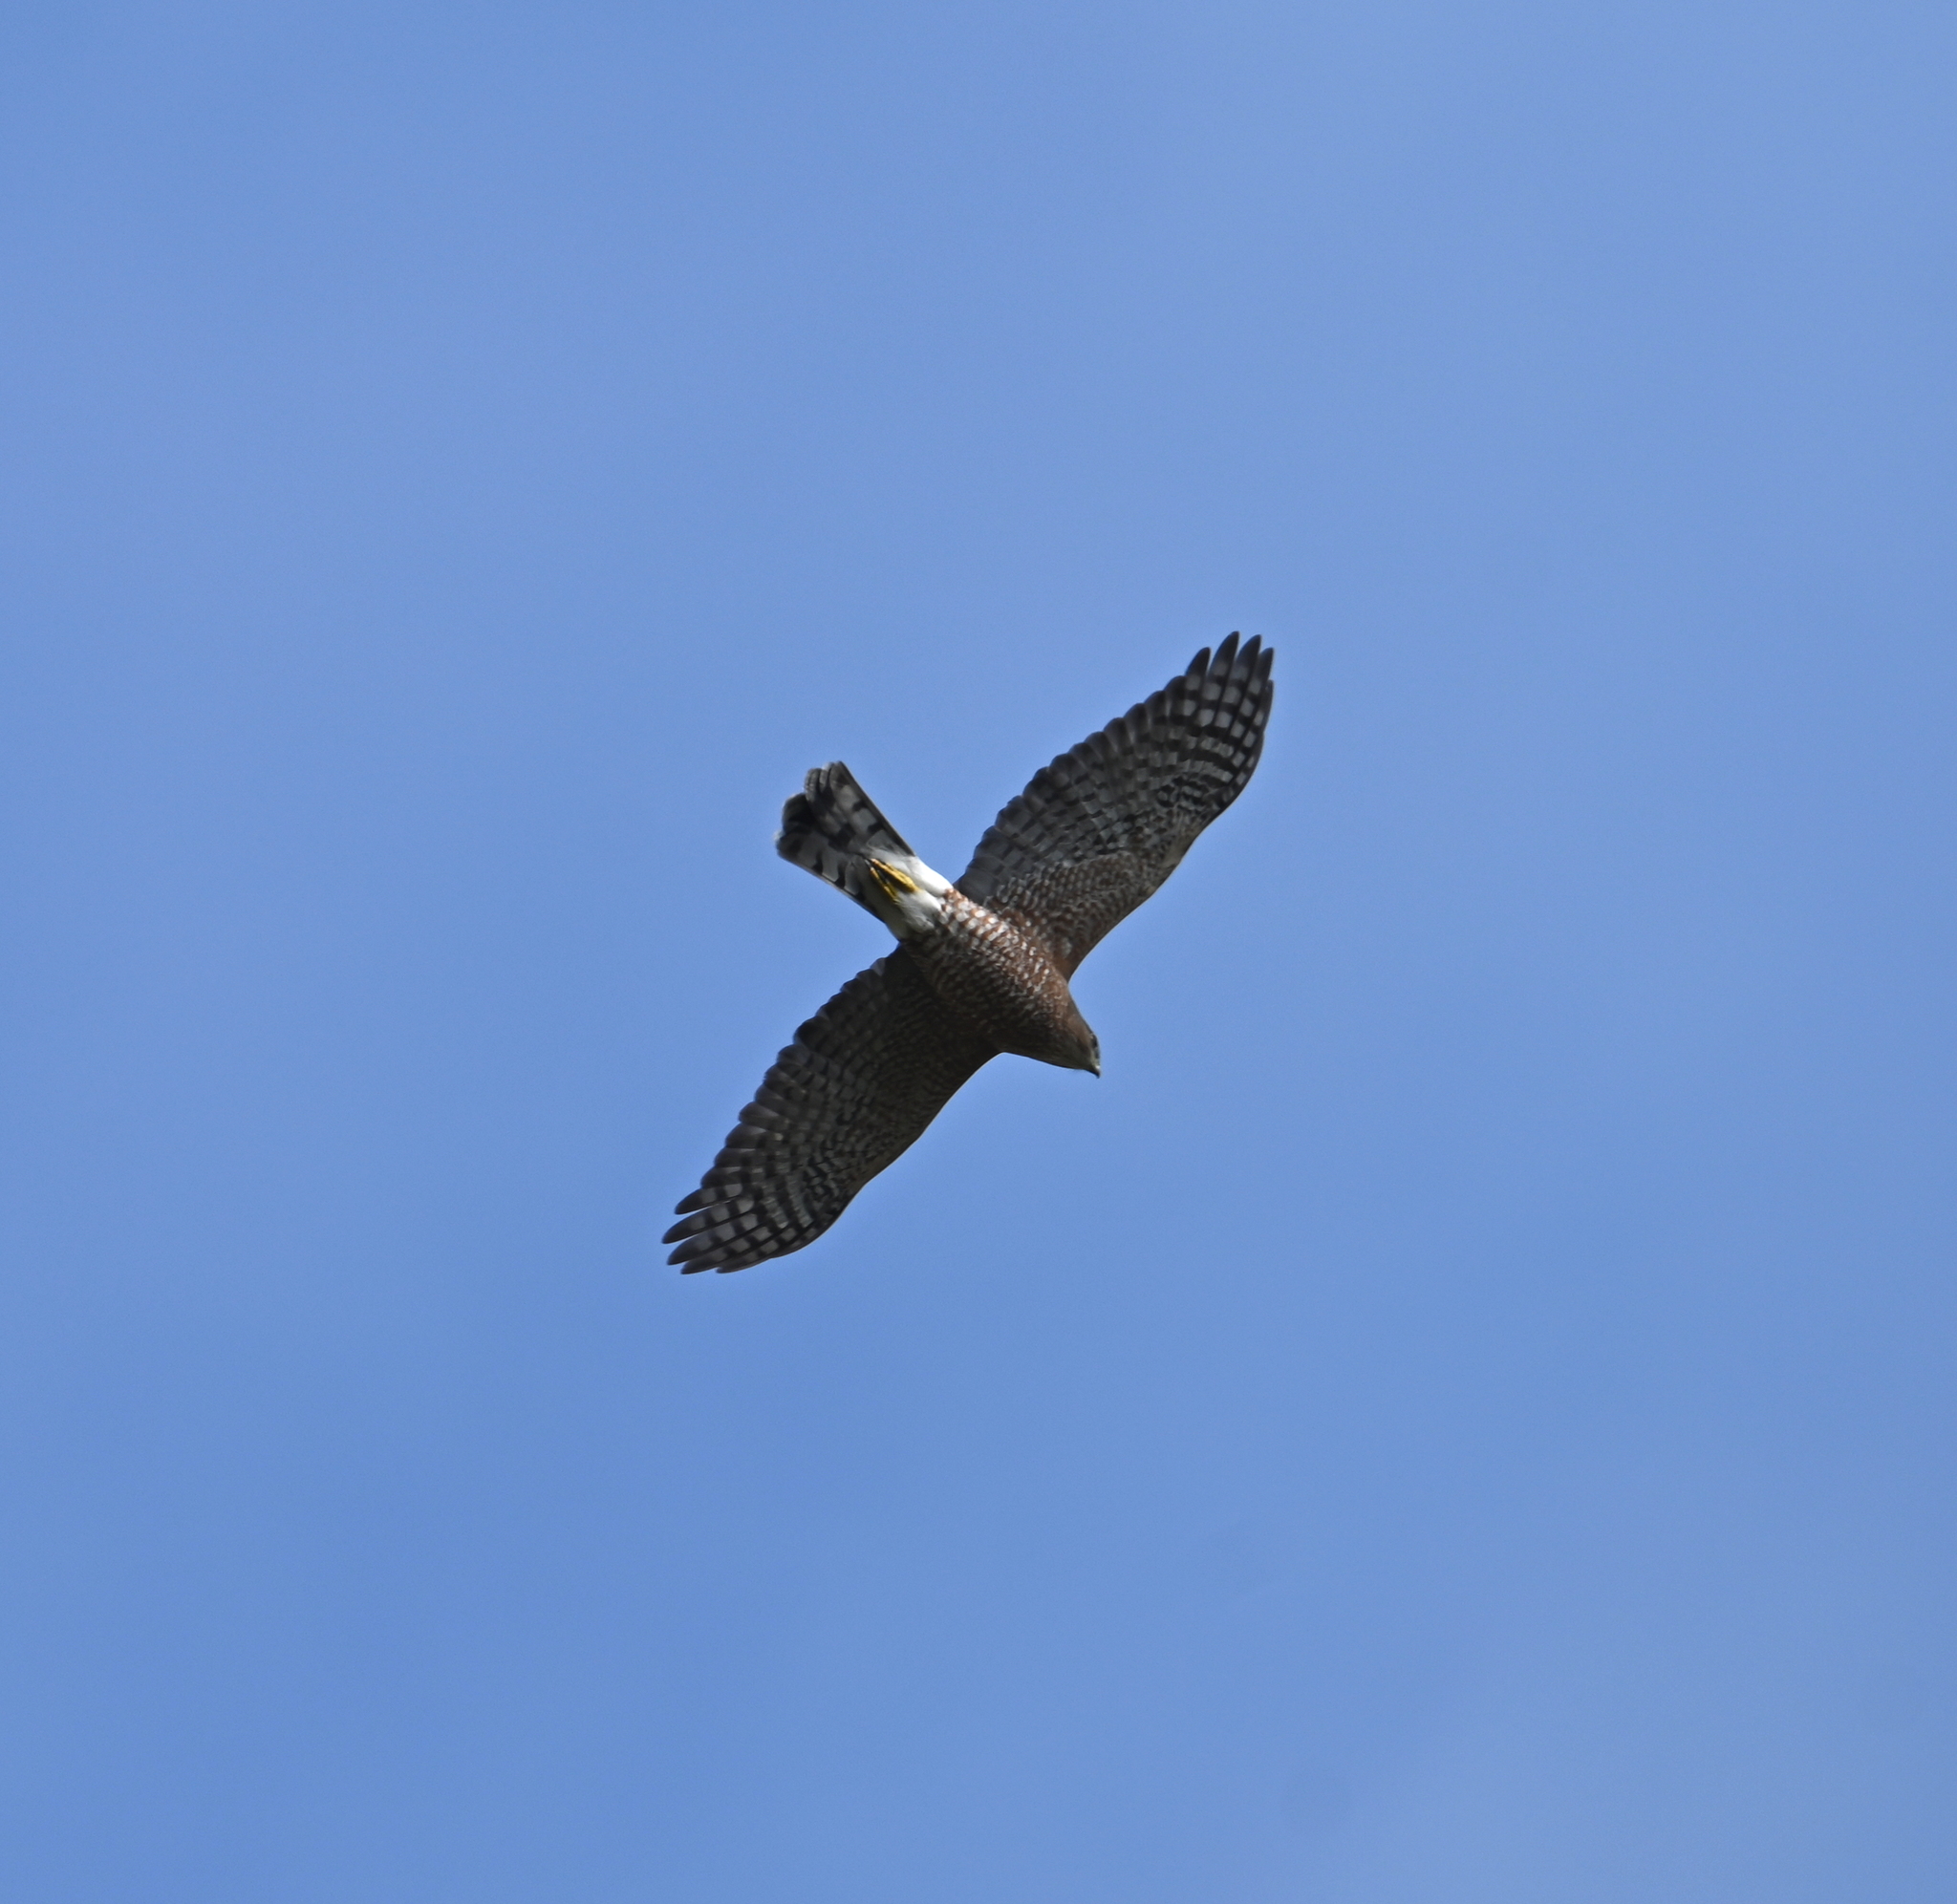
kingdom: Animalia
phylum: Chordata
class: Aves
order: Accipitriformes
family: Accipitridae
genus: Accipiter
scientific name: Accipiter cooperii
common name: Cooper's hawk
